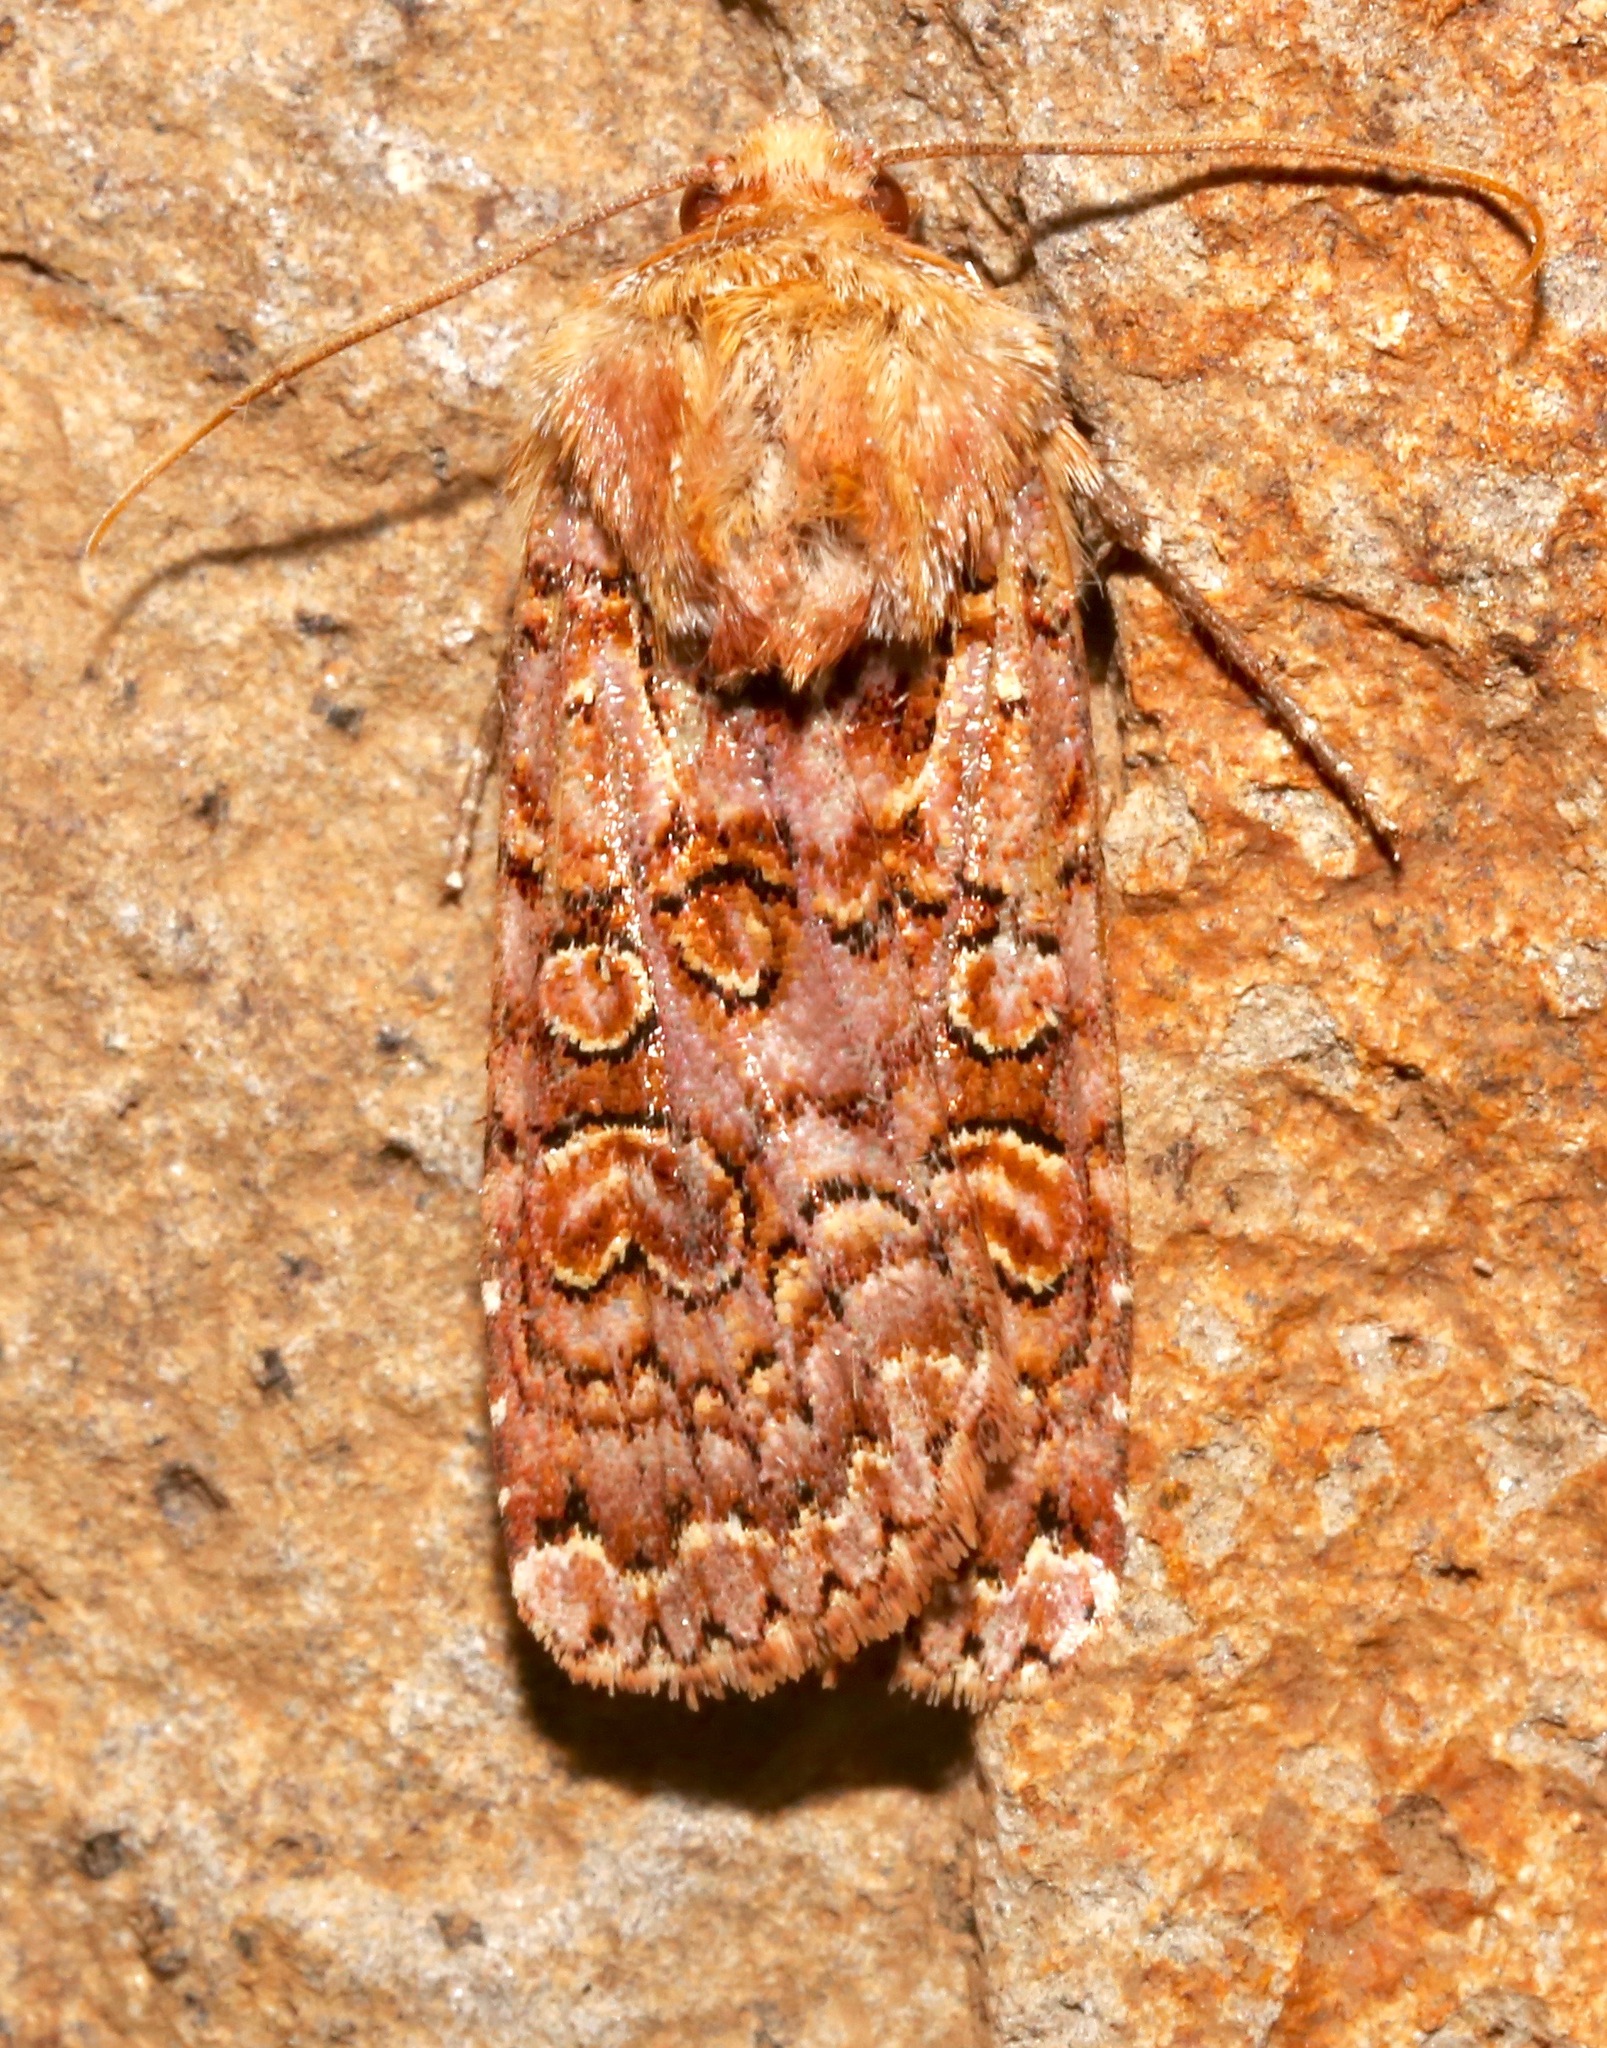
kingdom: Animalia
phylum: Arthropoda
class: Insecta
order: Lepidoptera
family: Noctuidae
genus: Xestia
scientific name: Xestia bolteri
